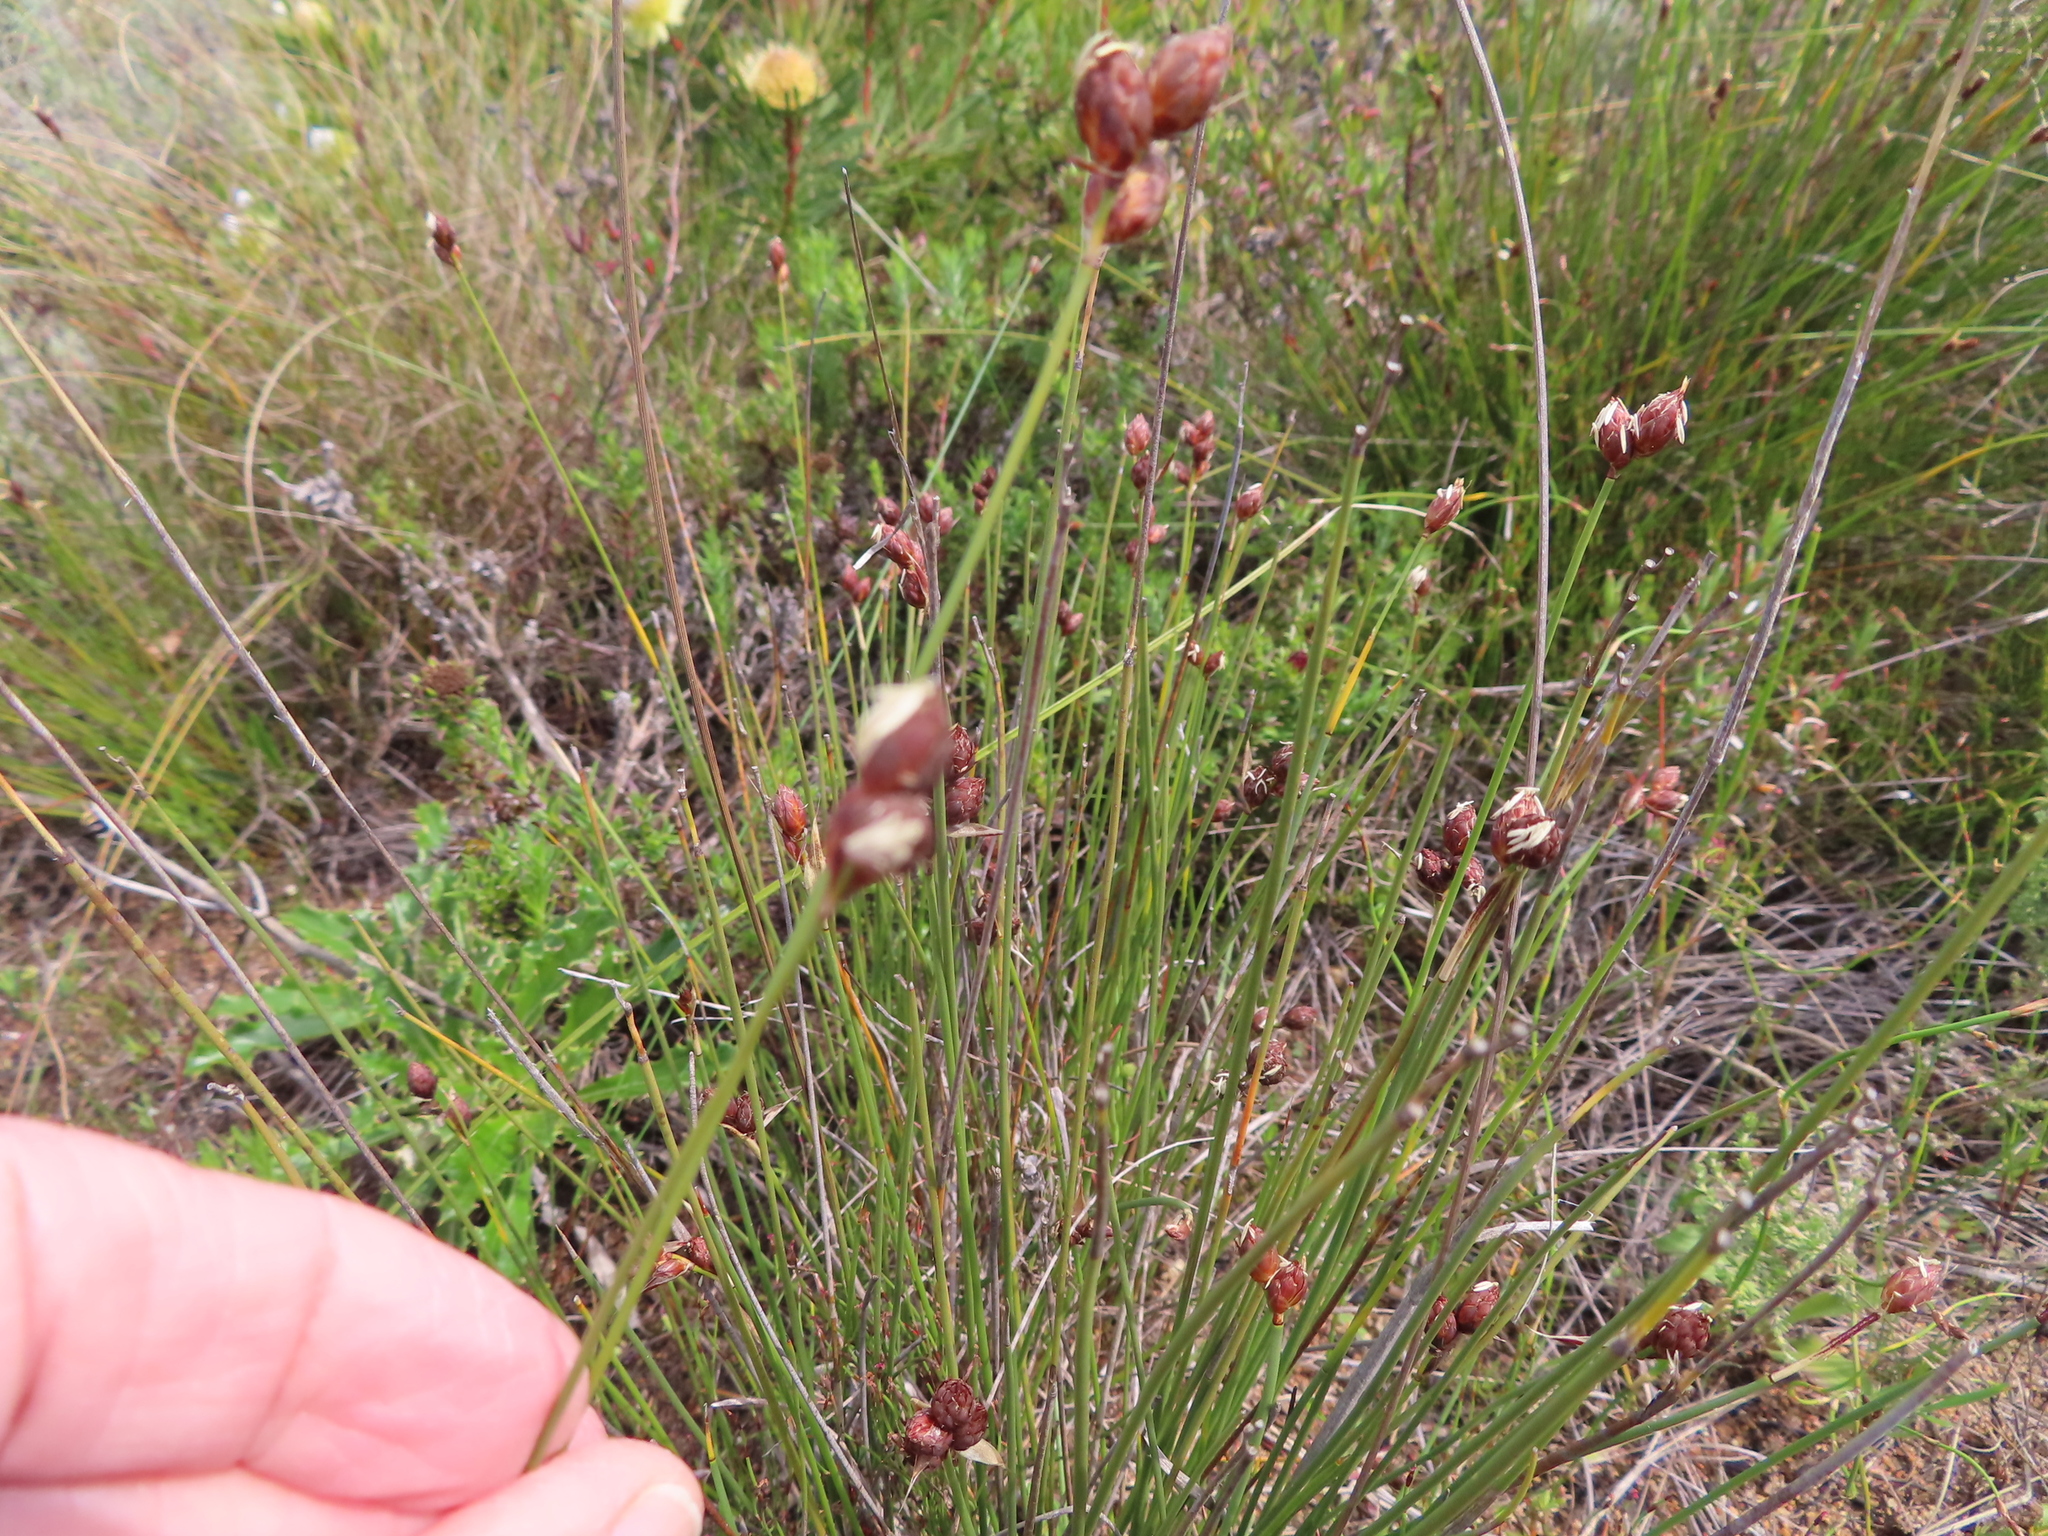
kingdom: Plantae
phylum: Tracheophyta
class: Liliopsida
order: Poales
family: Restionaceae
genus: Hypodiscus
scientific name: Hypodiscus rugosus
